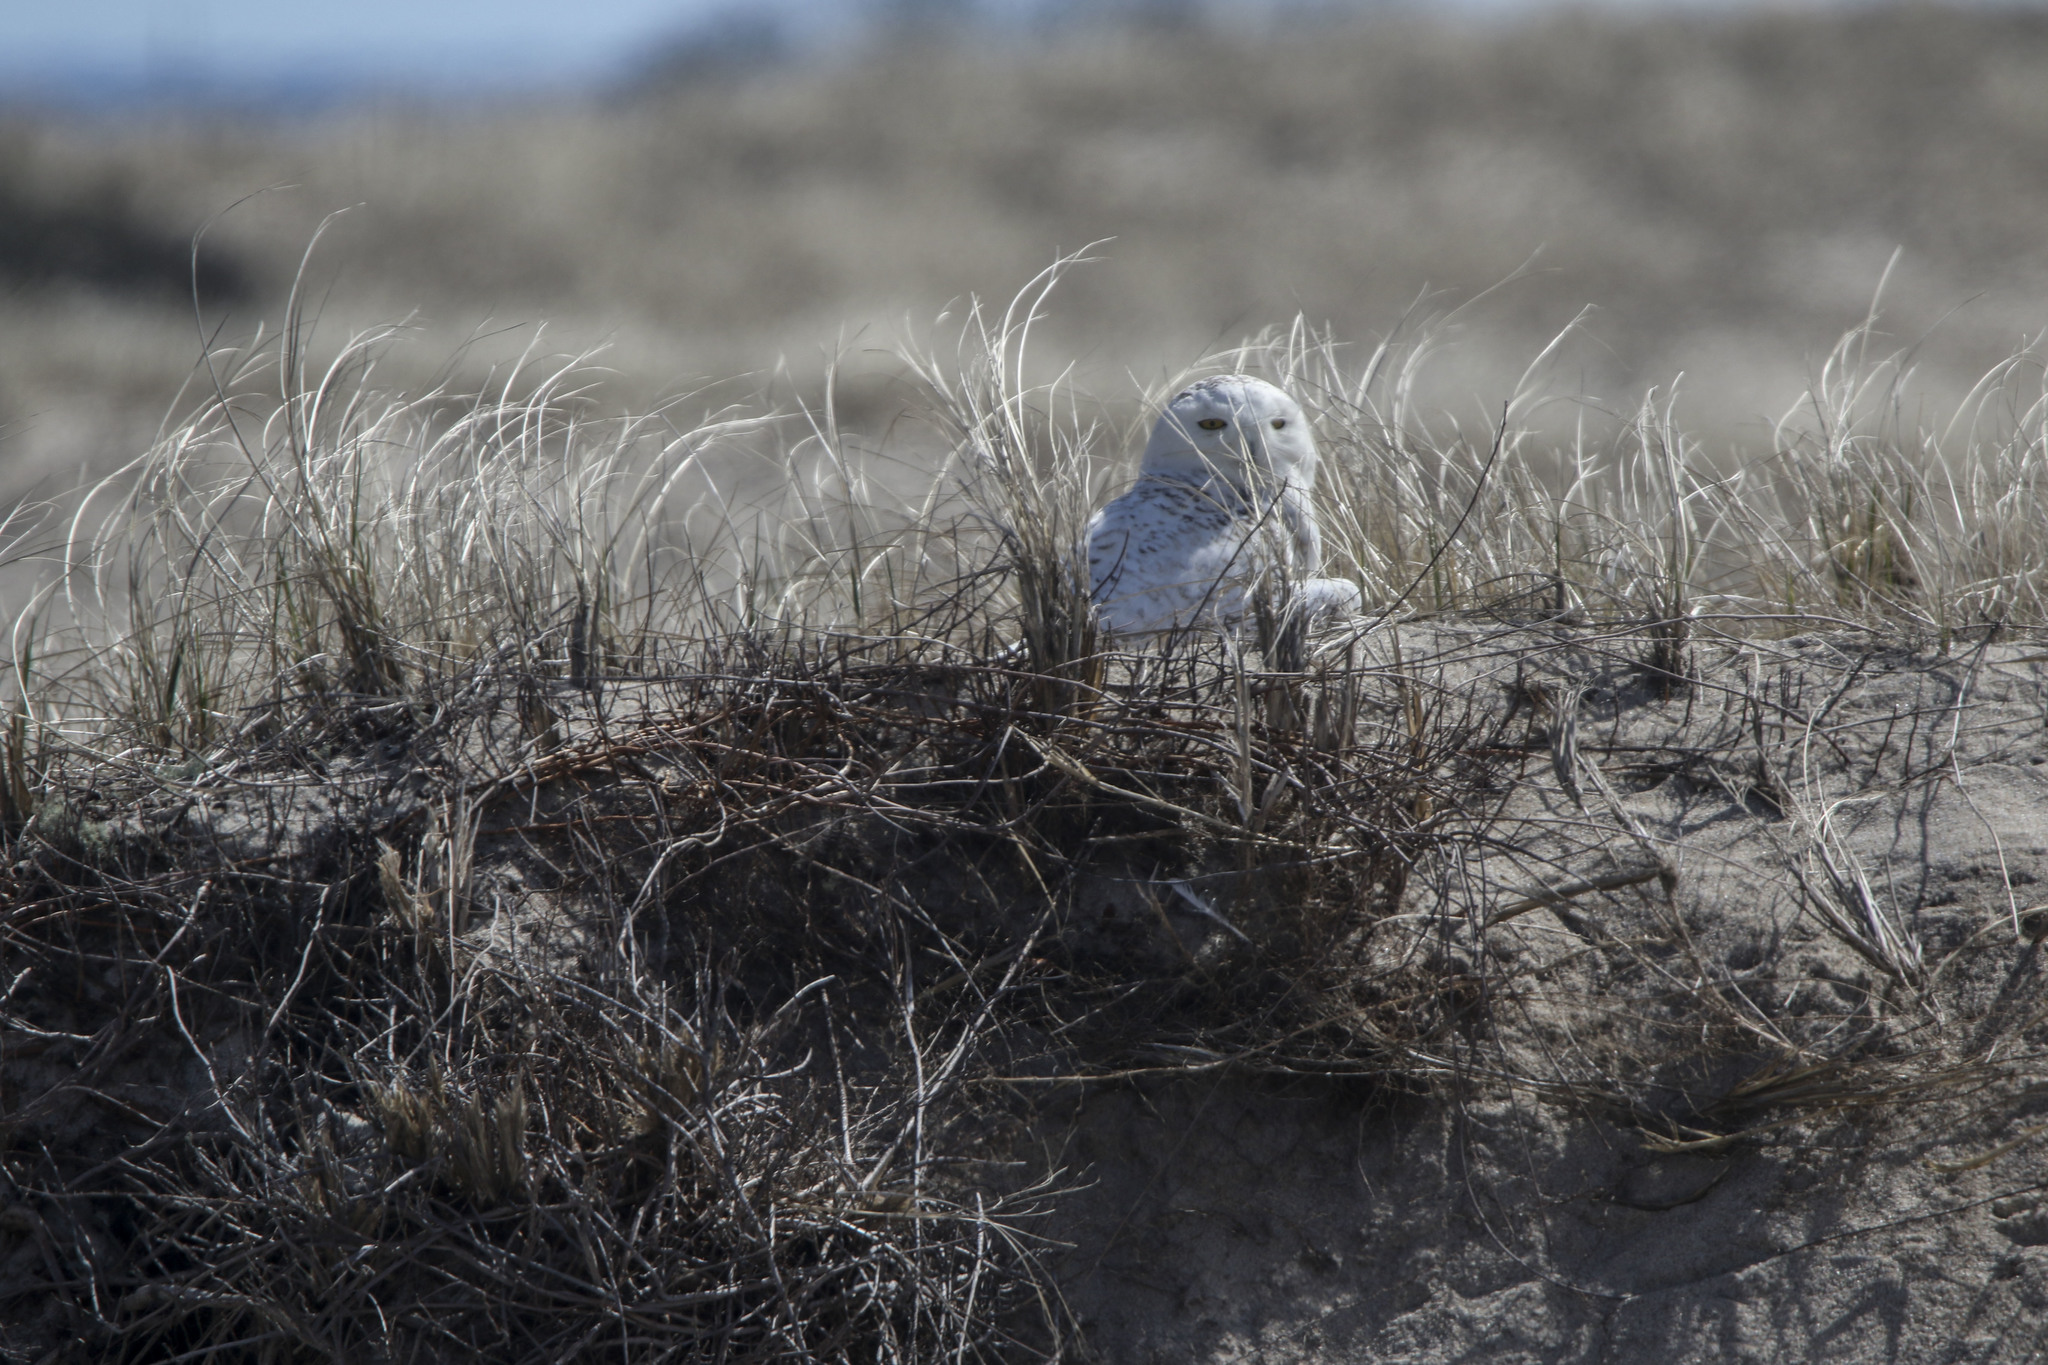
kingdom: Animalia
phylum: Chordata
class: Aves
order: Strigiformes
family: Strigidae
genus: Bubo
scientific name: Bubo scandiacus
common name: Snowy owl
